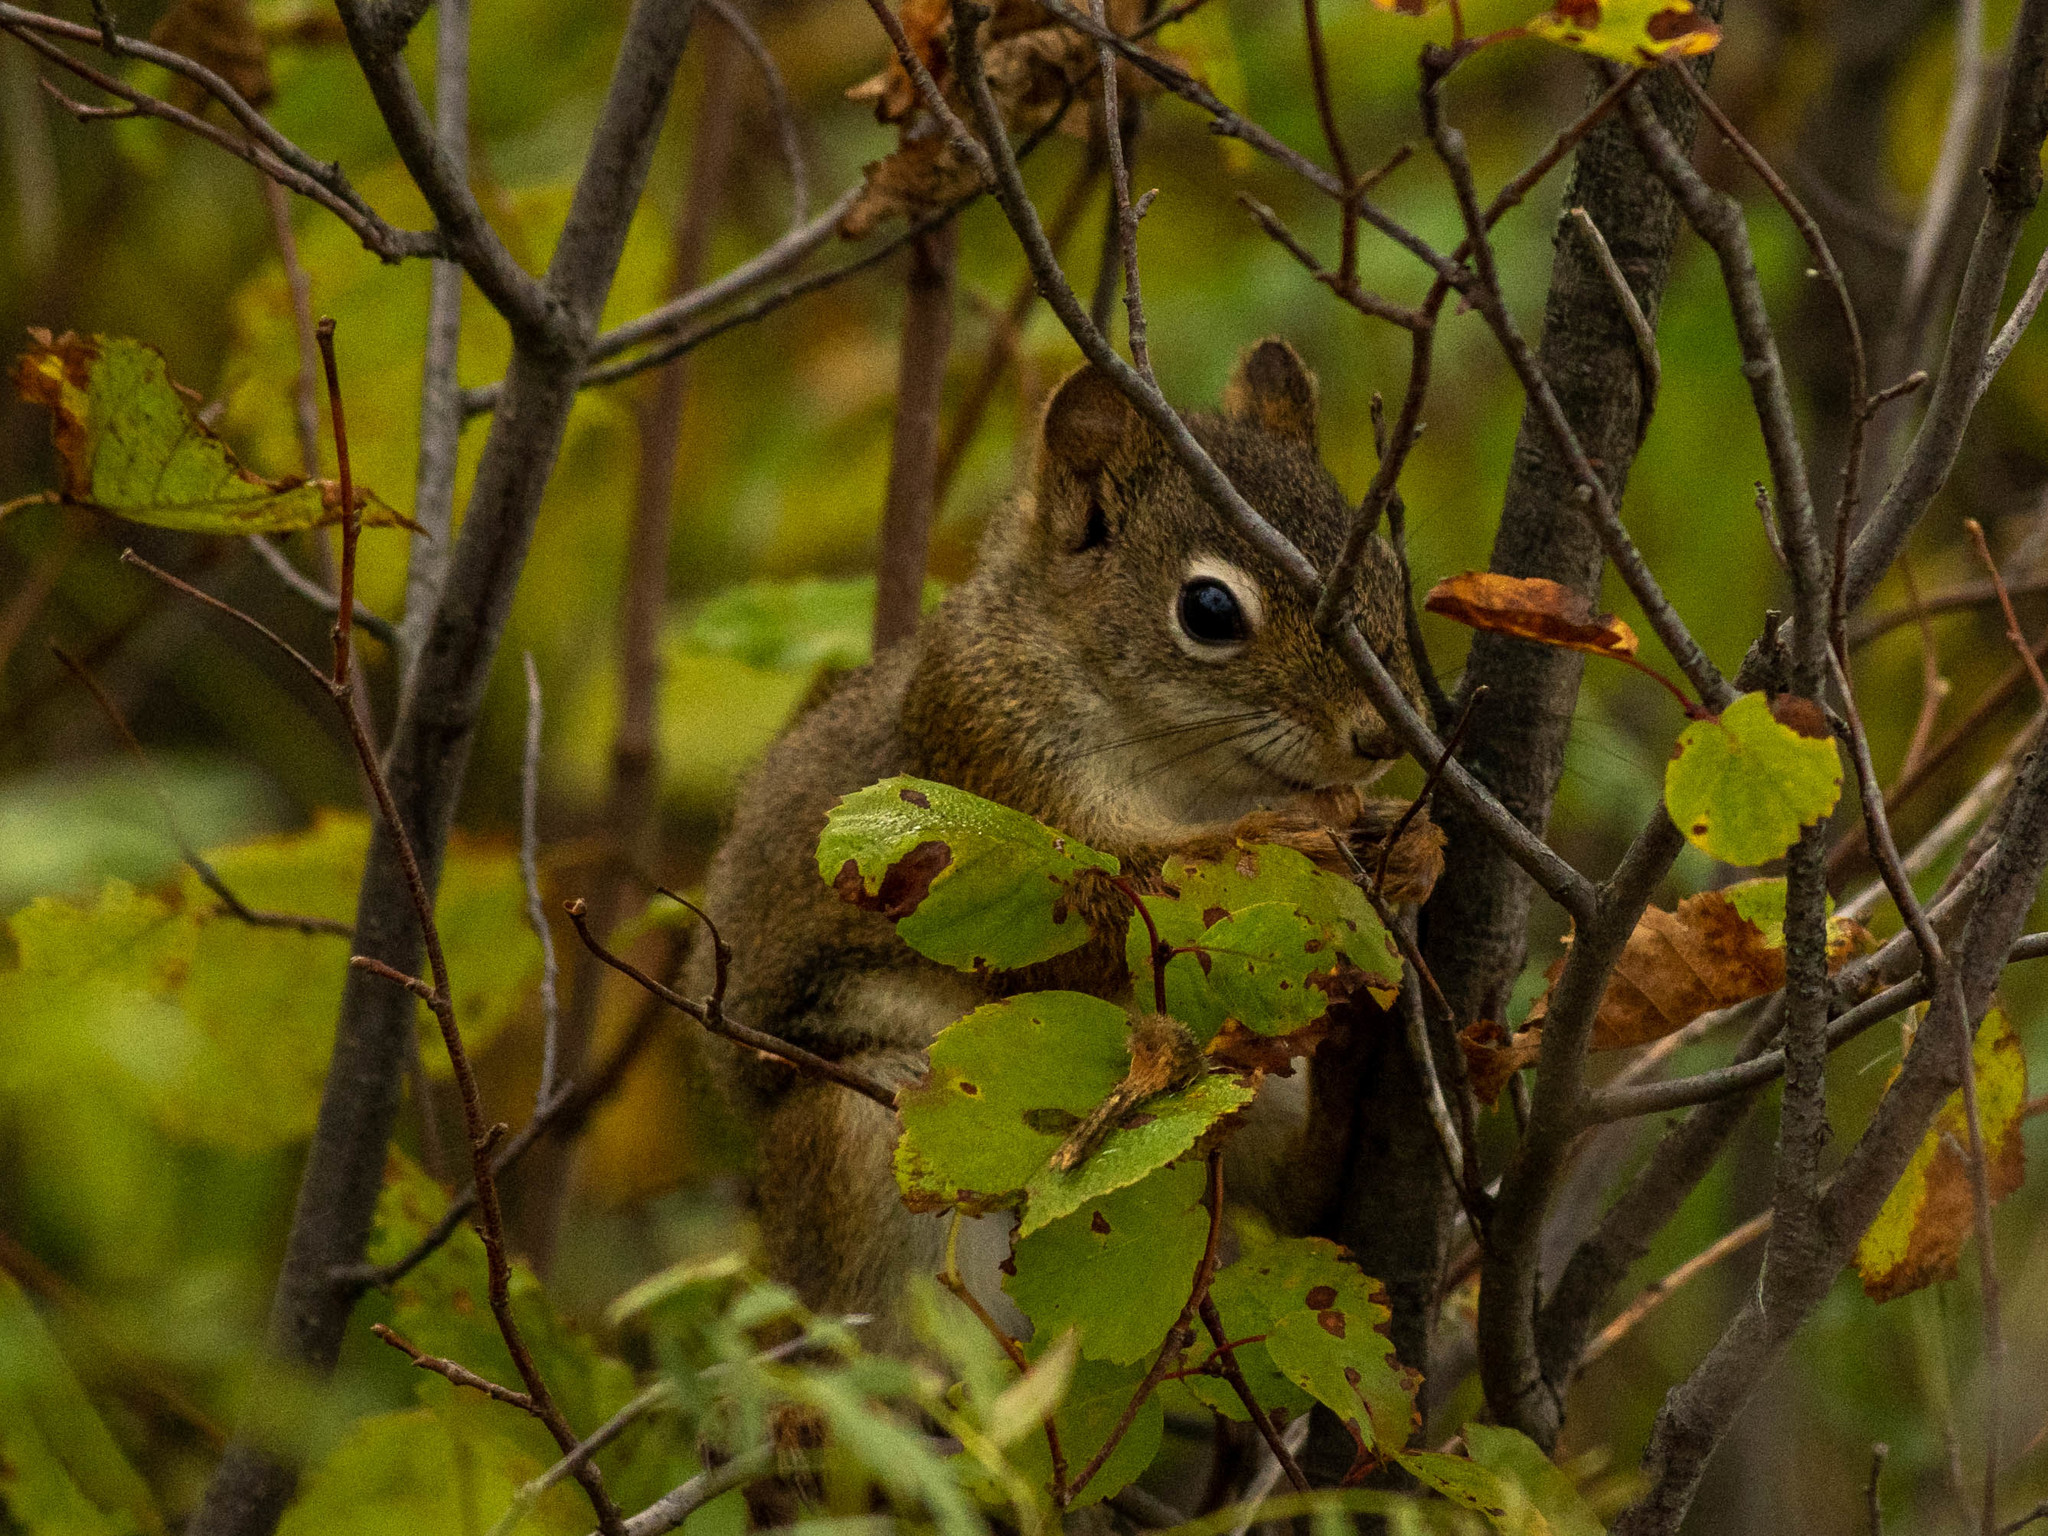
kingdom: Animalia
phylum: Chordata
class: Mammalia
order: Rodentia
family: Sciuridae
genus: Tamiasciurus
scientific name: Tamiasciurus hudsonicus
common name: Red squirrel
